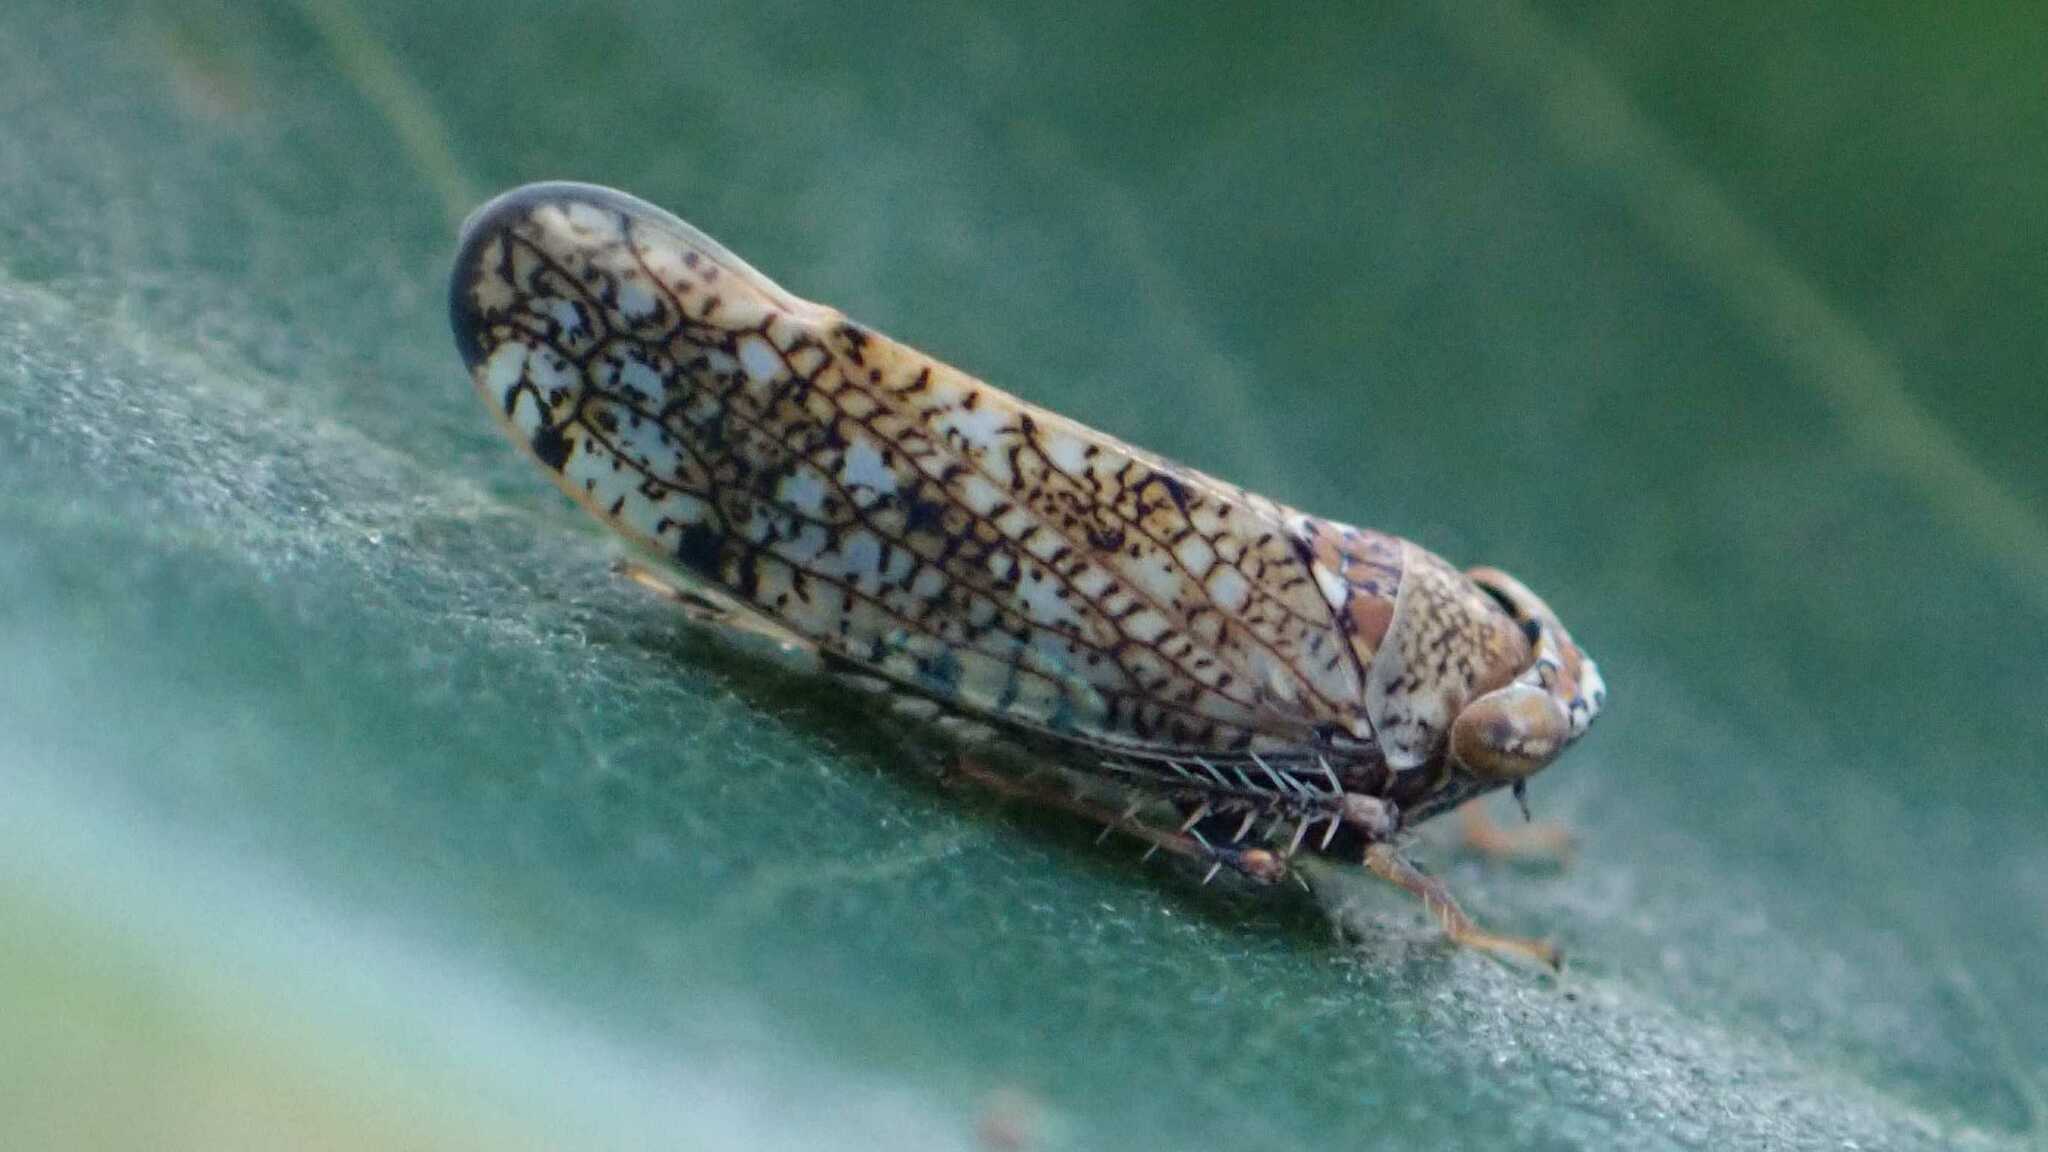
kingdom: Animalia
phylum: Arthropoda
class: Insecta
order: Hemiptera
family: Cicadellidae
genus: Orientus
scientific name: Orientus ishidae
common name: Japanese leafhopper
